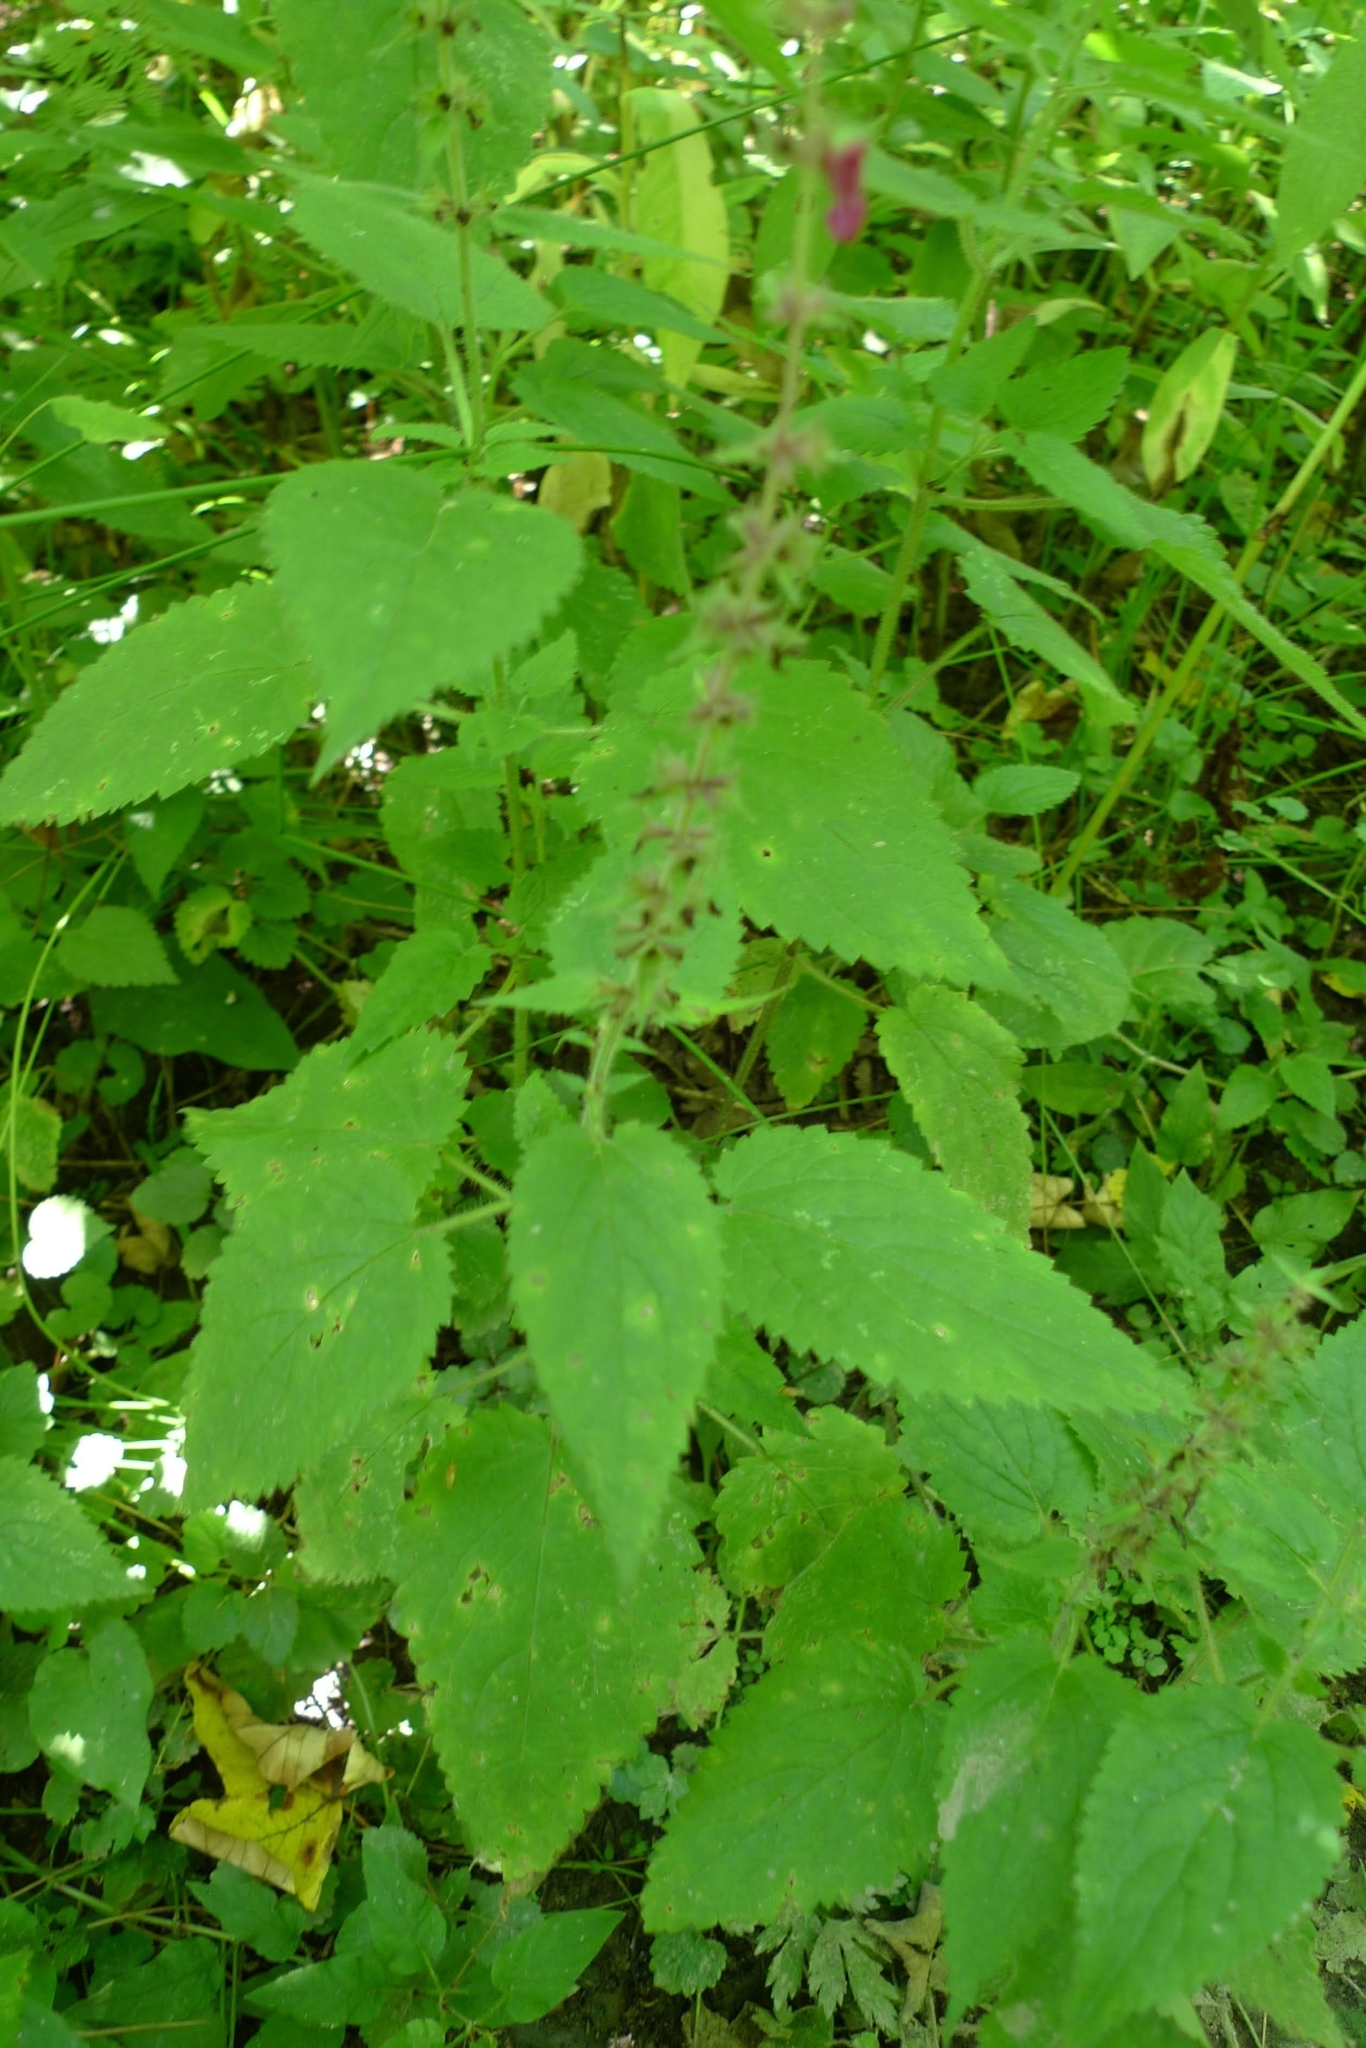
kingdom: Plantae
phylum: Tracheophyta
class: Magnoliopsida
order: Lamiales
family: Lamiaceae
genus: Stachys
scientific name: Stachys sylvatica
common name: Hedge woundwort
